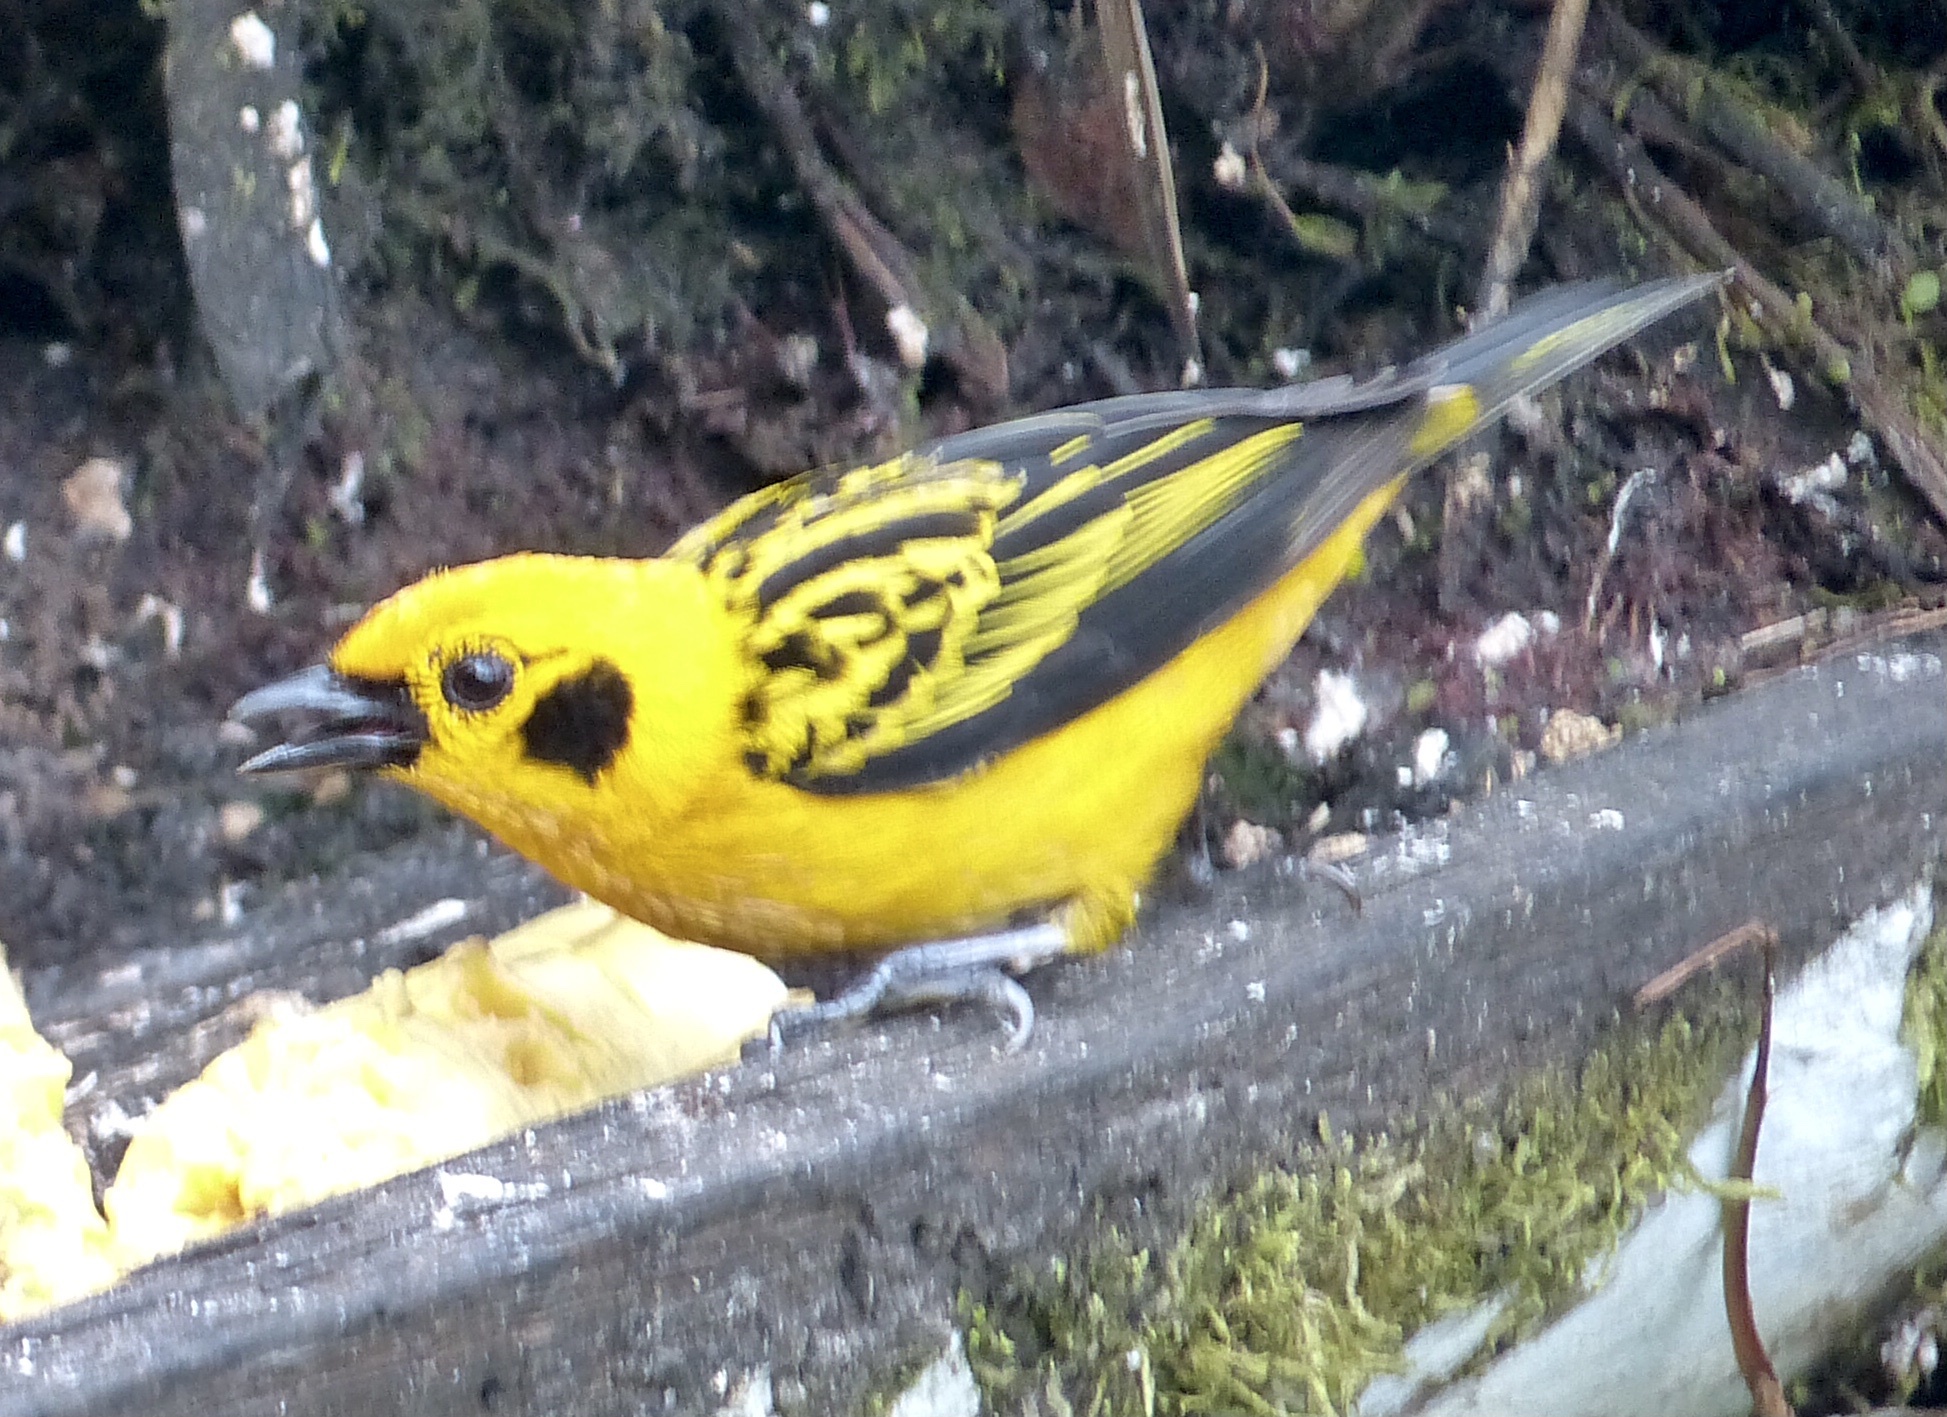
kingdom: Animalia
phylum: Chordata
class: Aves
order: Passeriformes
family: Thraupidae
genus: Tangara
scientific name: Tangara arthus
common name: Golden tanager
